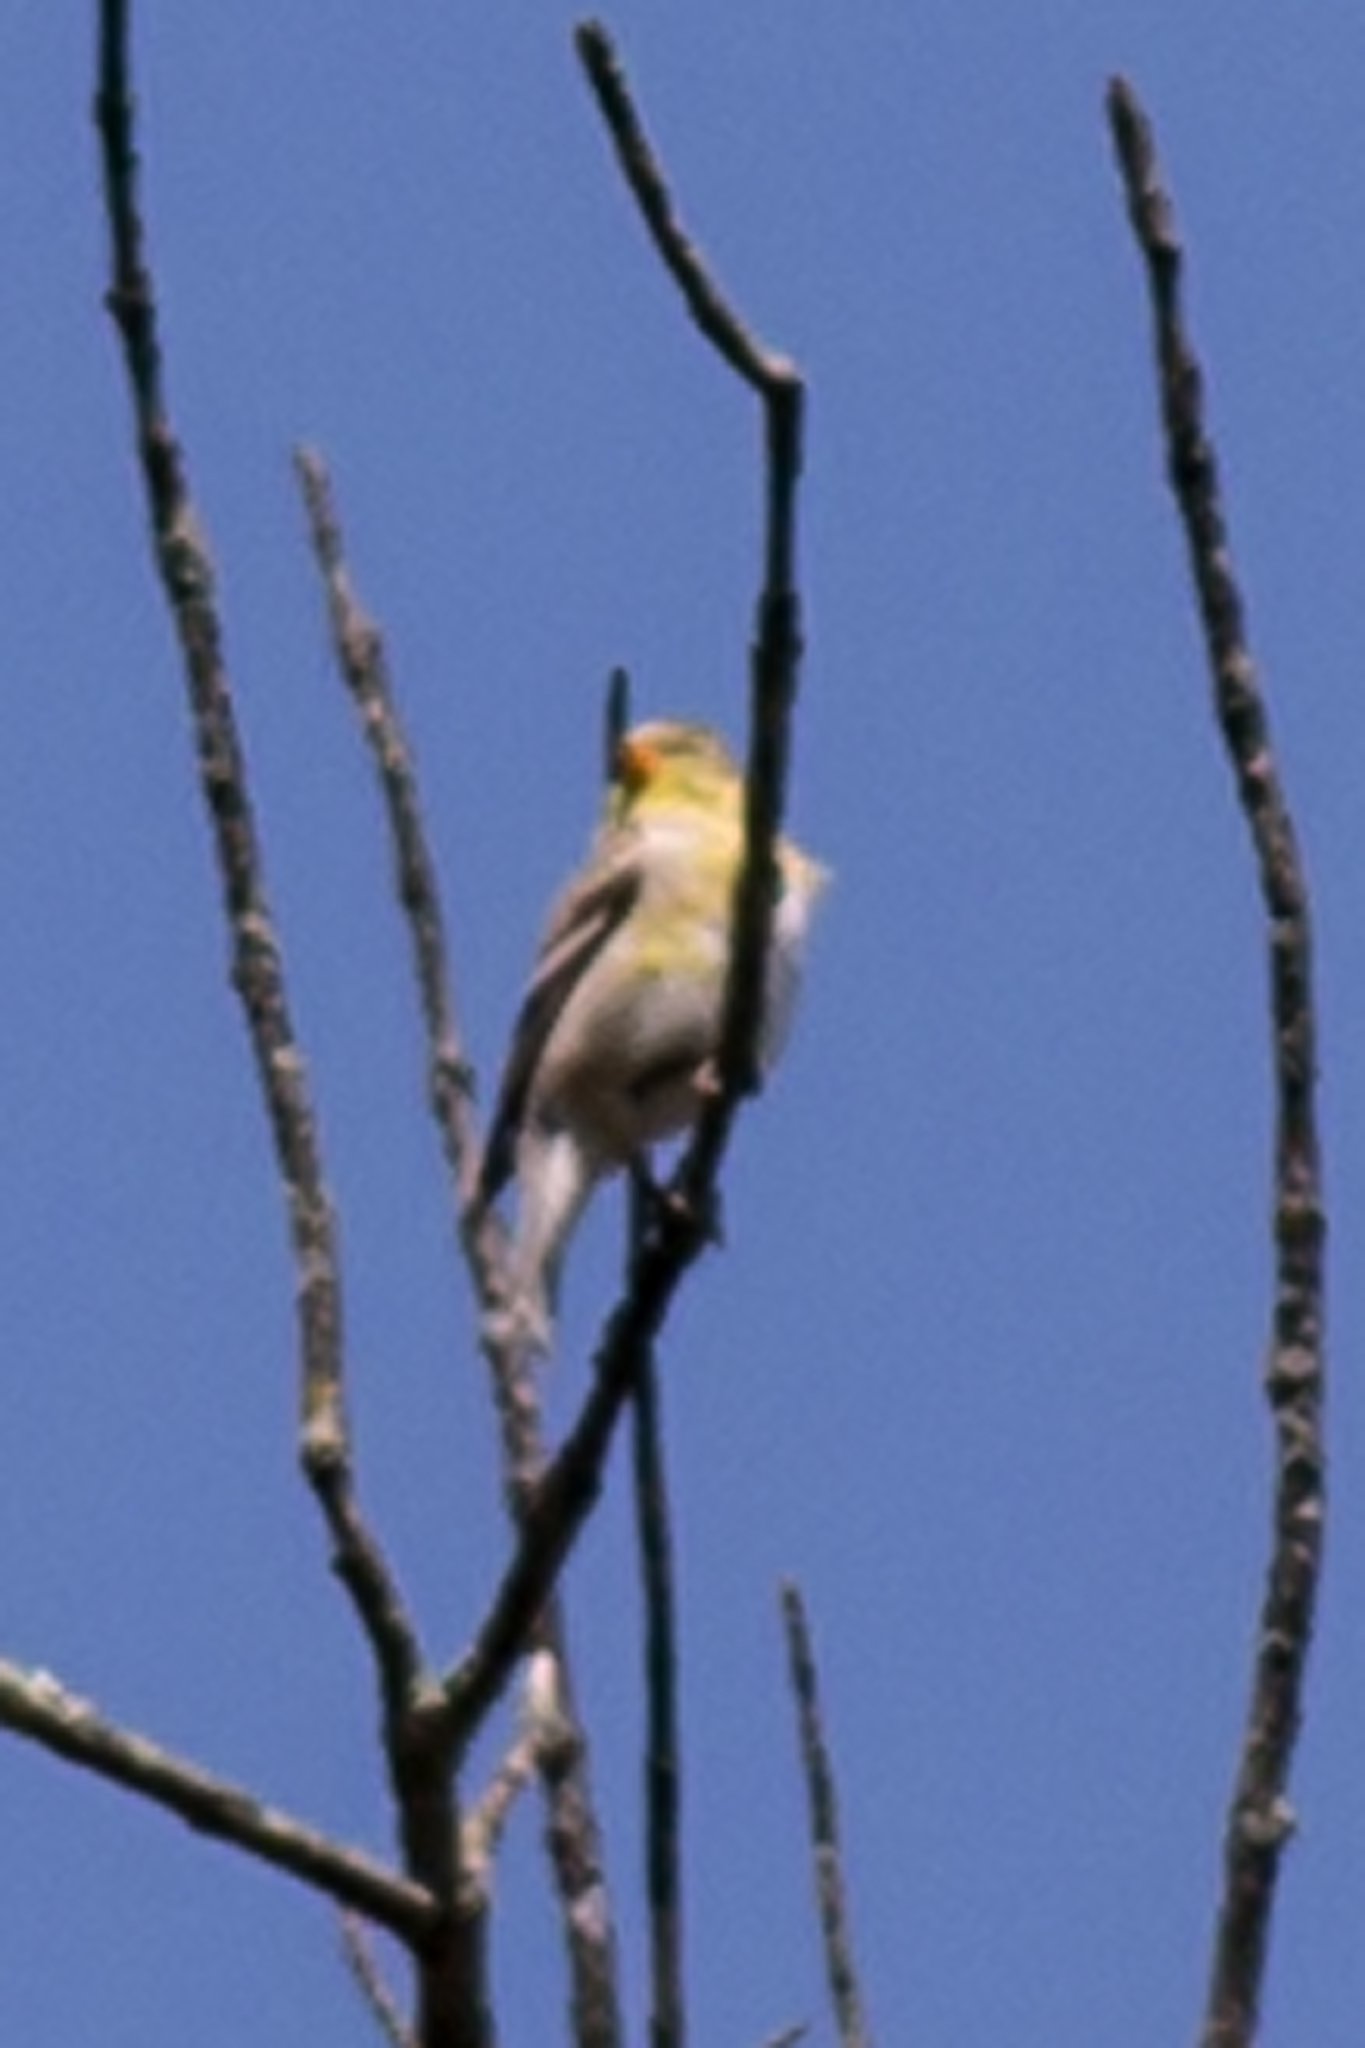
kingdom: Animalia
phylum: Chordata
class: Aves
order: Passeriformes
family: Fringillidae
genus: Spinus
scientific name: Spinus tristis
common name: American goldfinch
